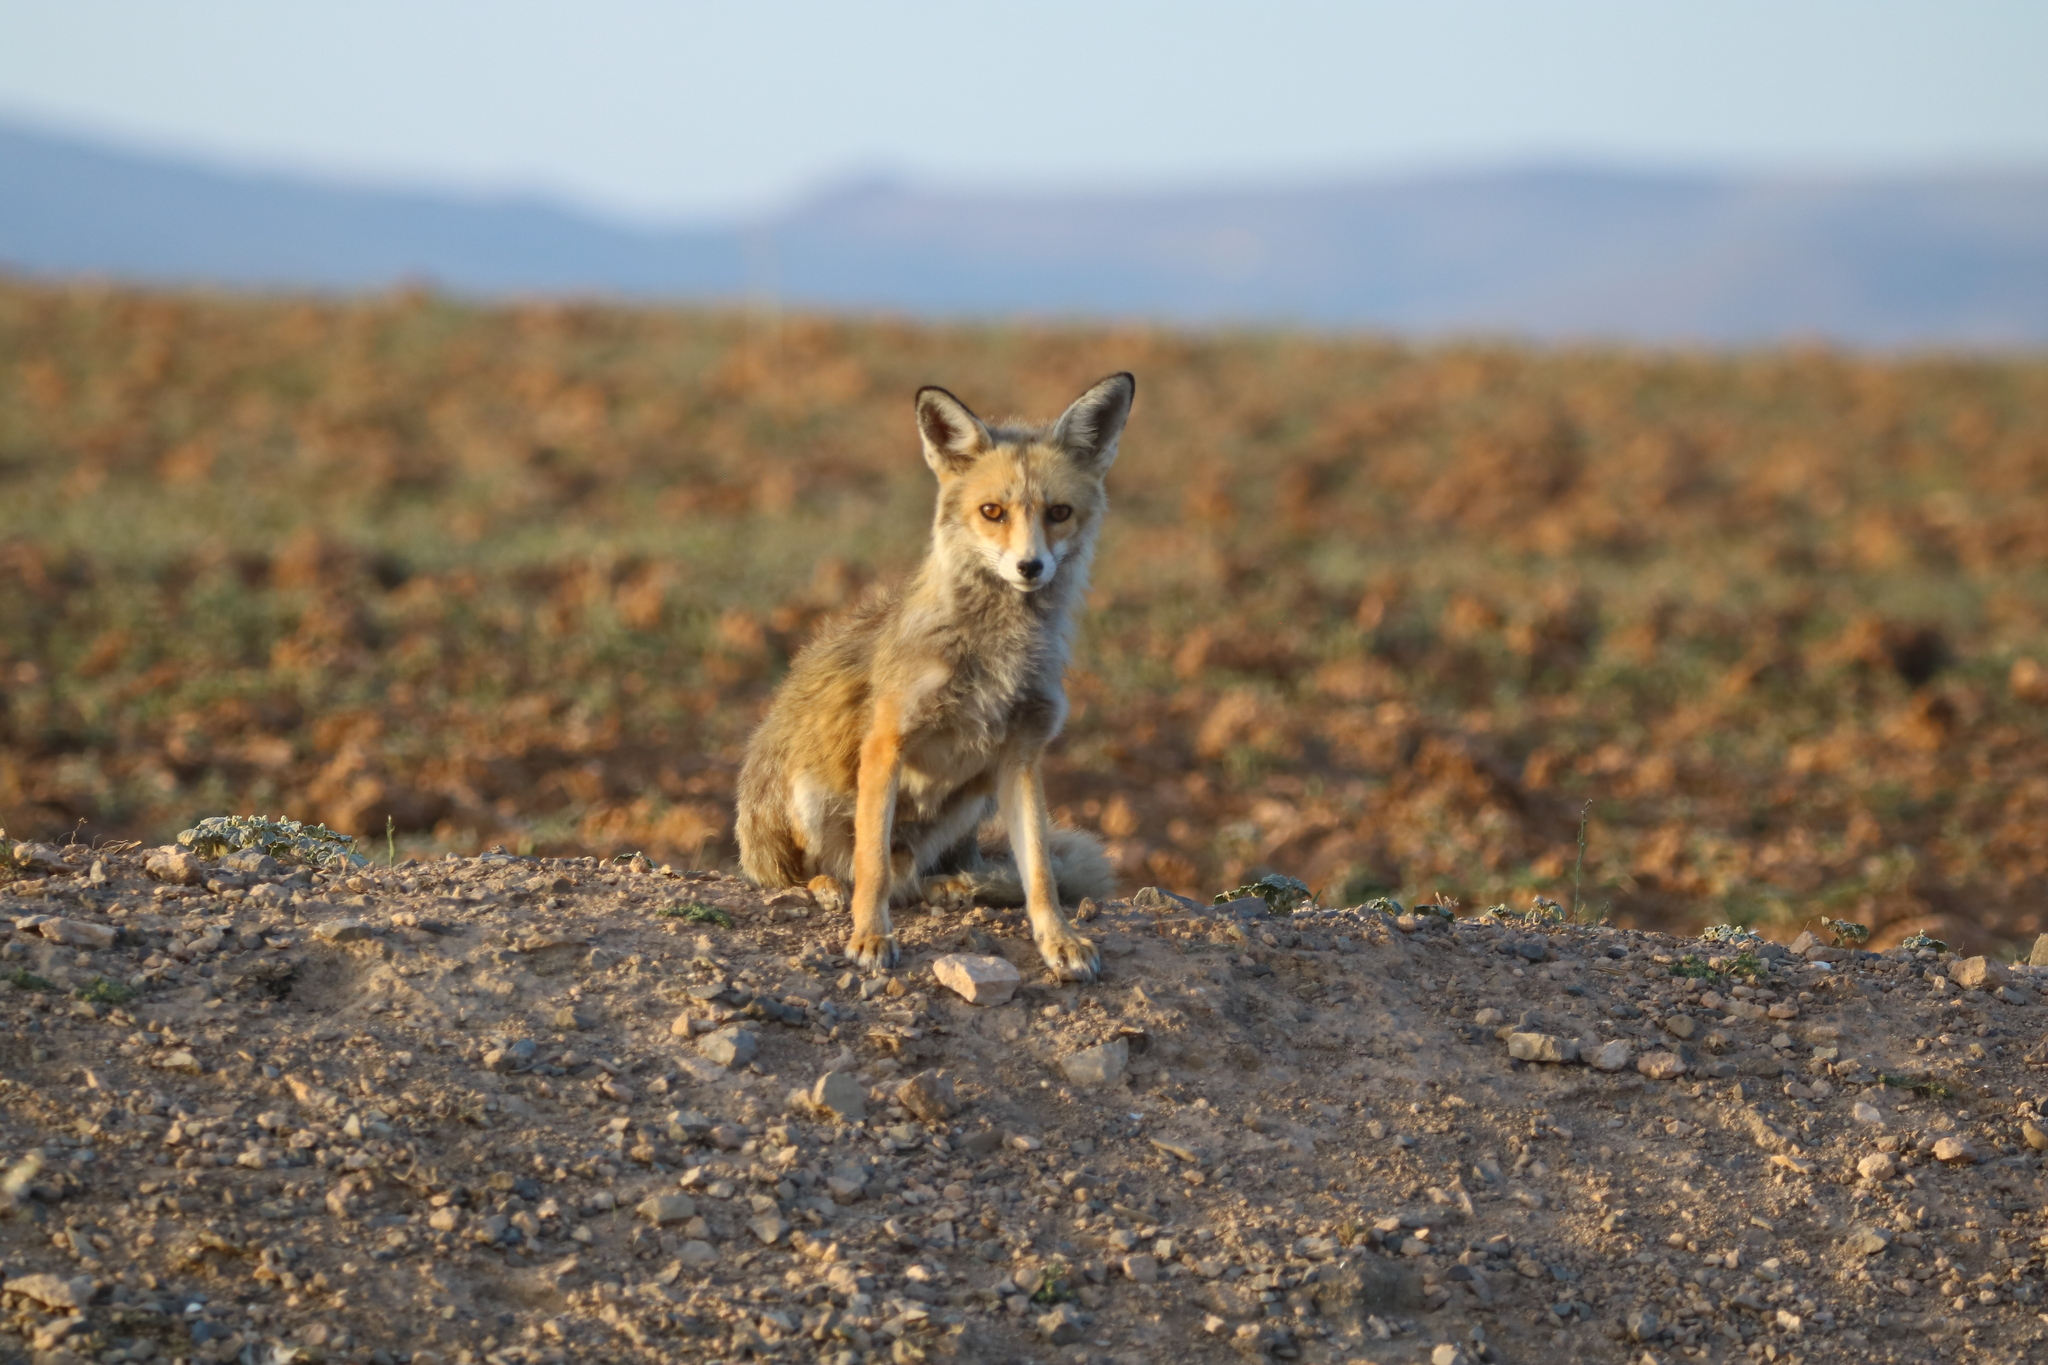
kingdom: Animalia
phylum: Chordata
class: Mammalia
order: Carnivora
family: Canidae
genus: Vulpes
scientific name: Vulpes vulpes
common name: Red fox
